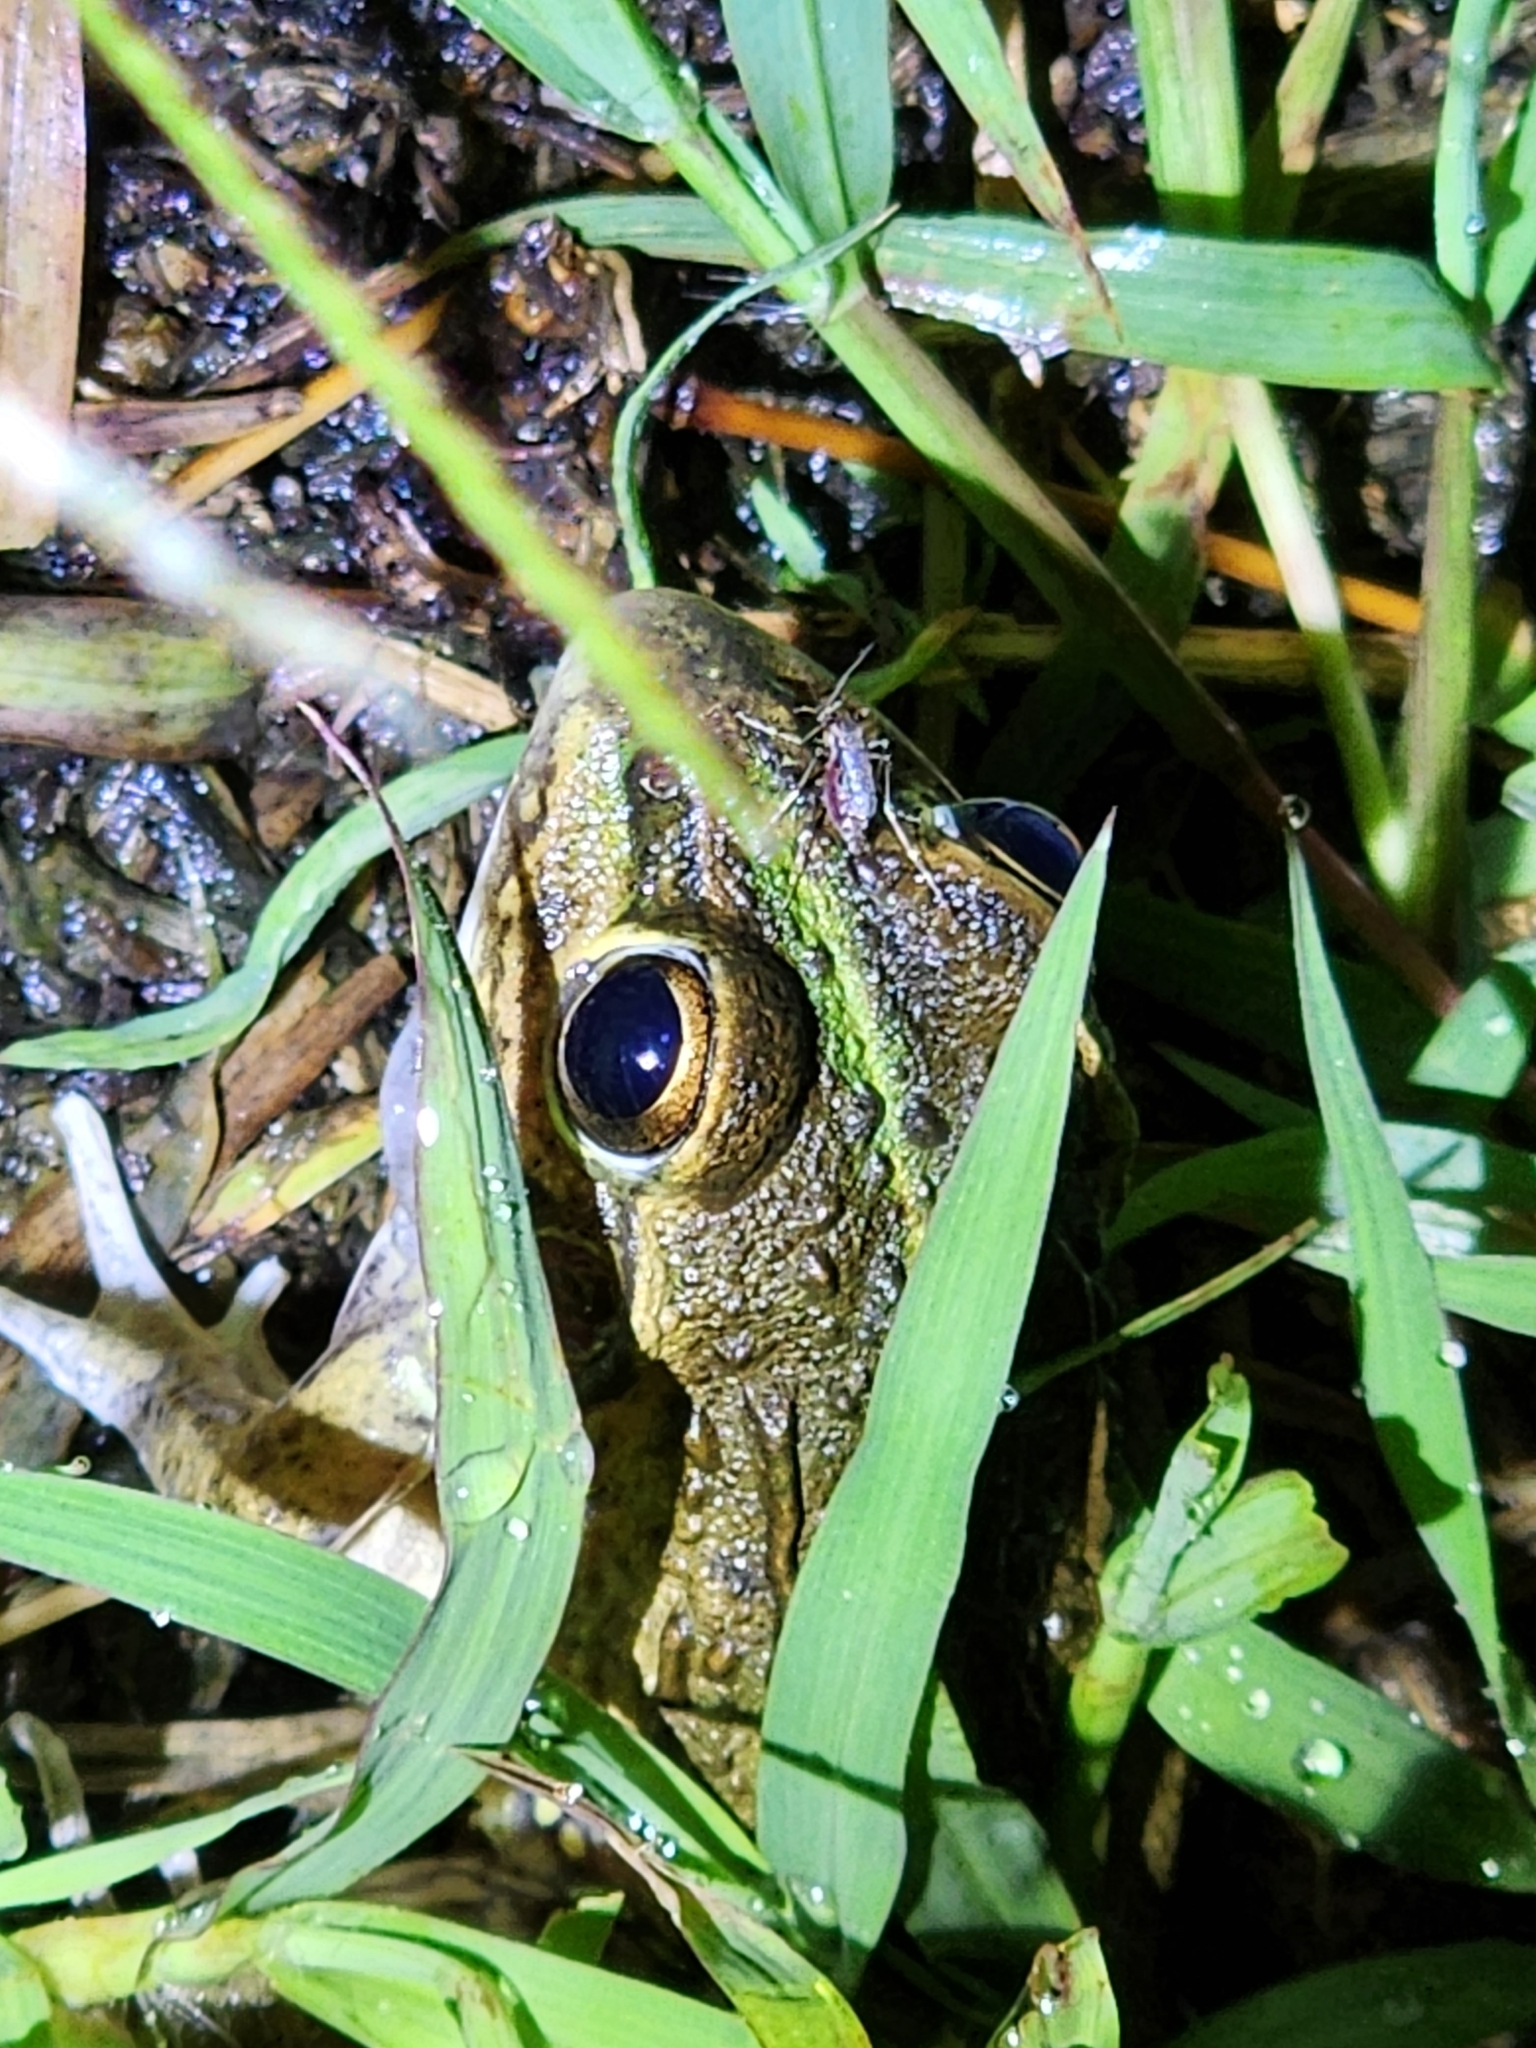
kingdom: Animalia
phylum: Chordata
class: Amphibia
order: Anura
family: Pelodryadidae
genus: Ranoidea
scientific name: Ranoidea alboguttata
